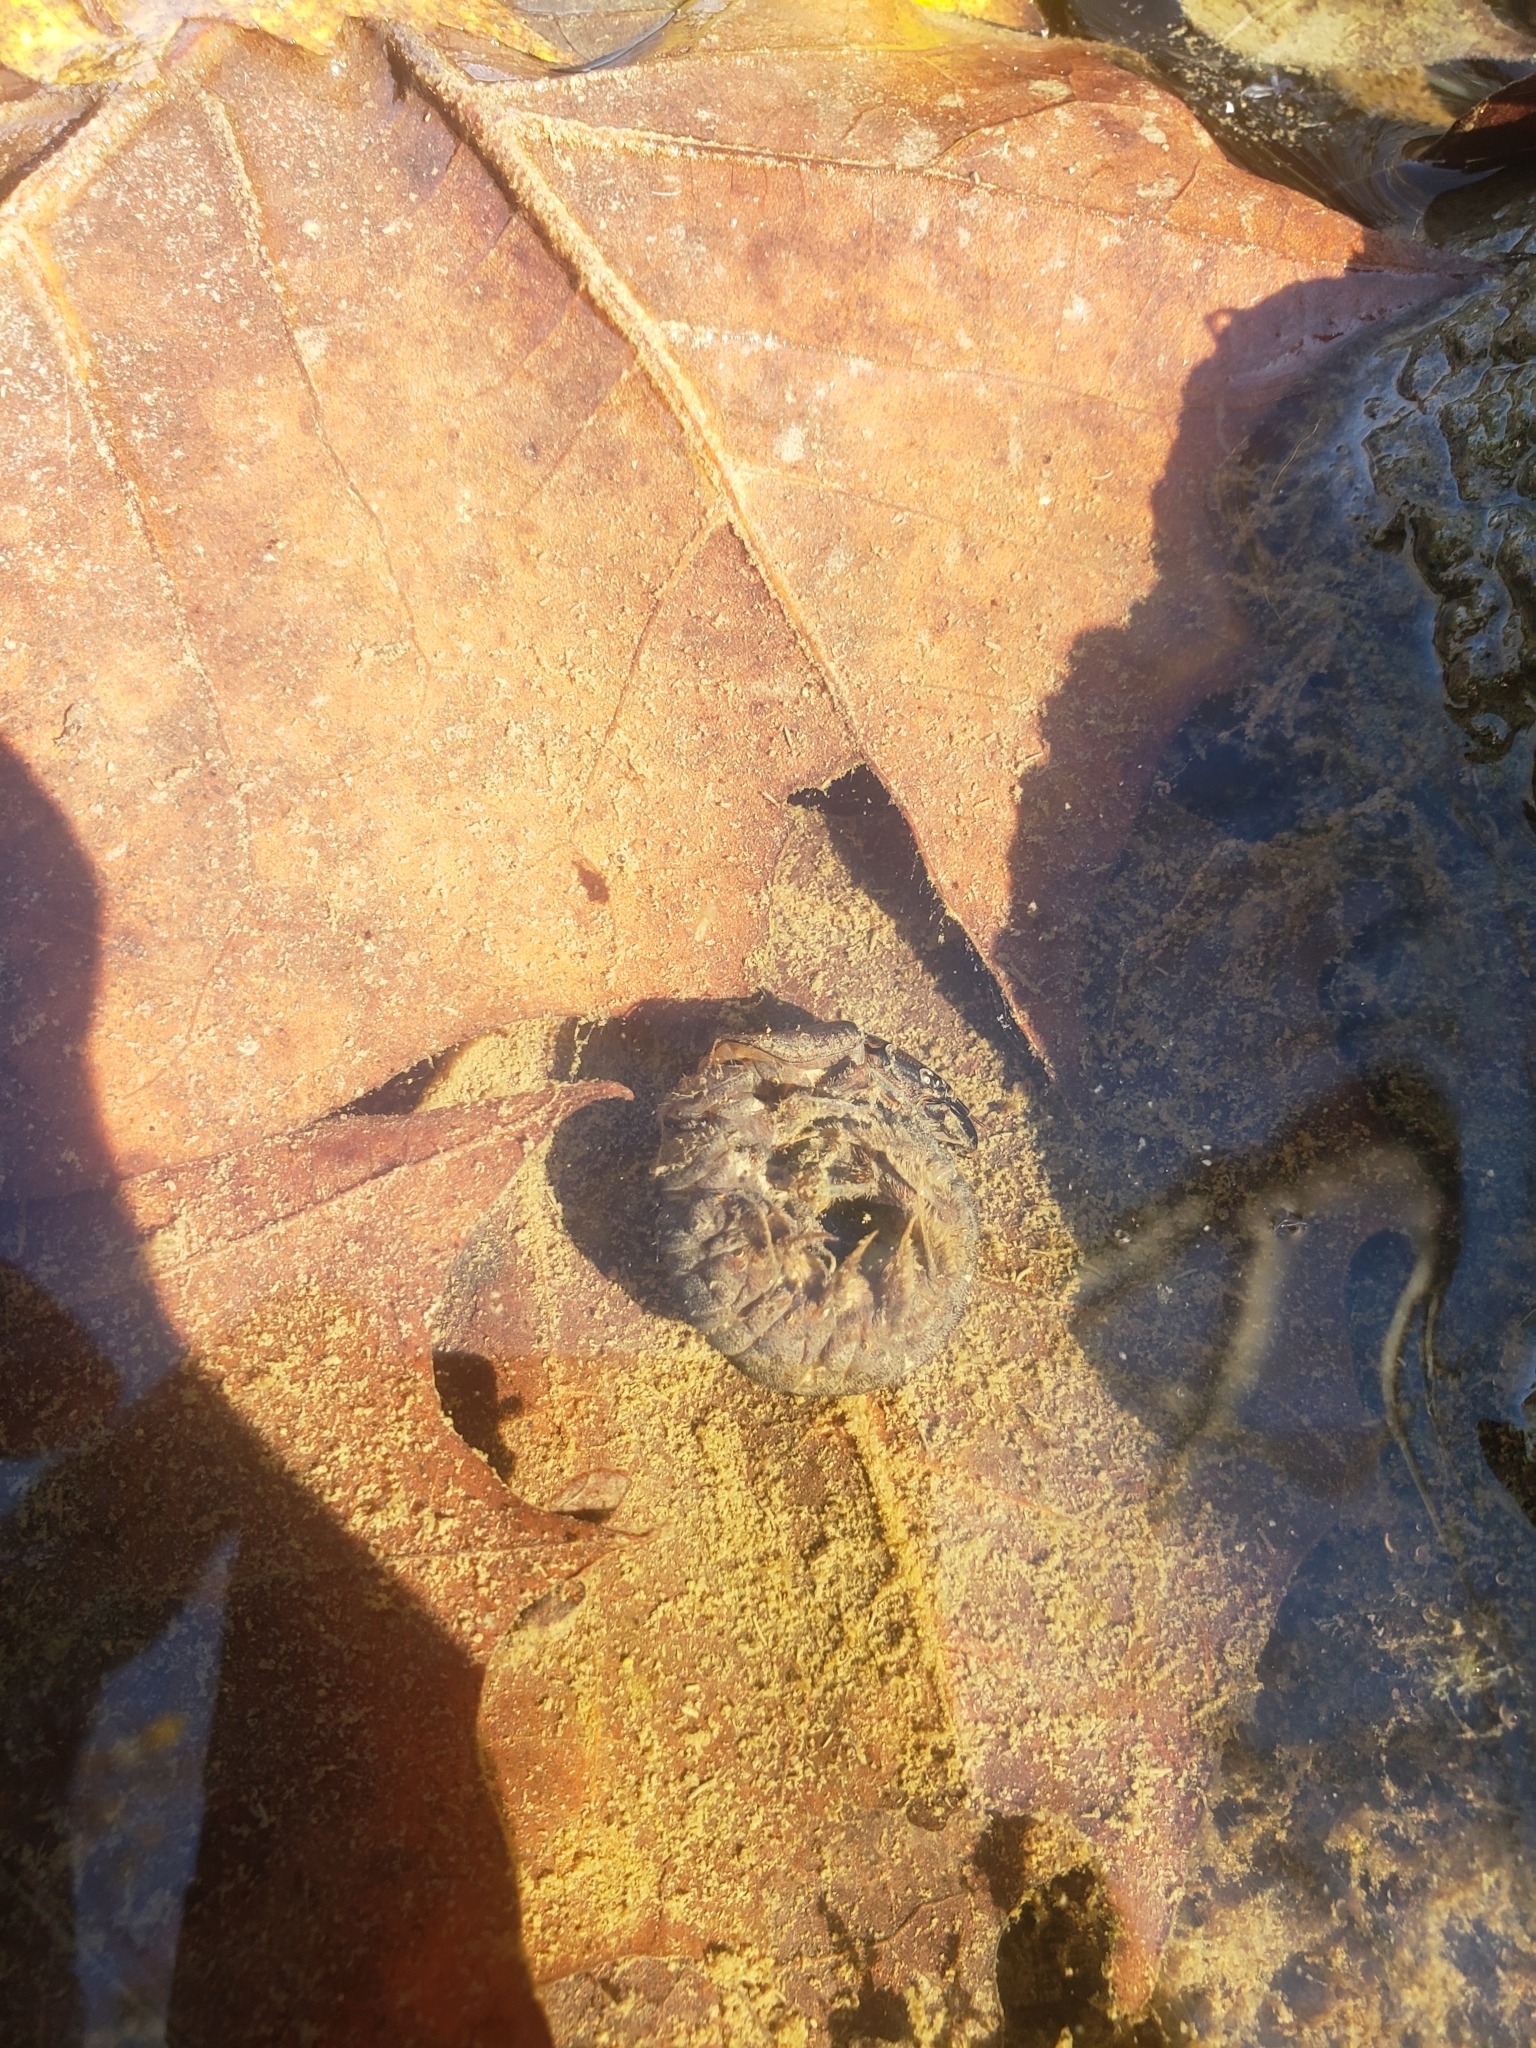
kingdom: Animalia
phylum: Arthropoda
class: Insecta
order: Megaloptera
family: Corydalidae
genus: Corydalus
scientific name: Corydalus cornutus
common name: Dobsonfly
